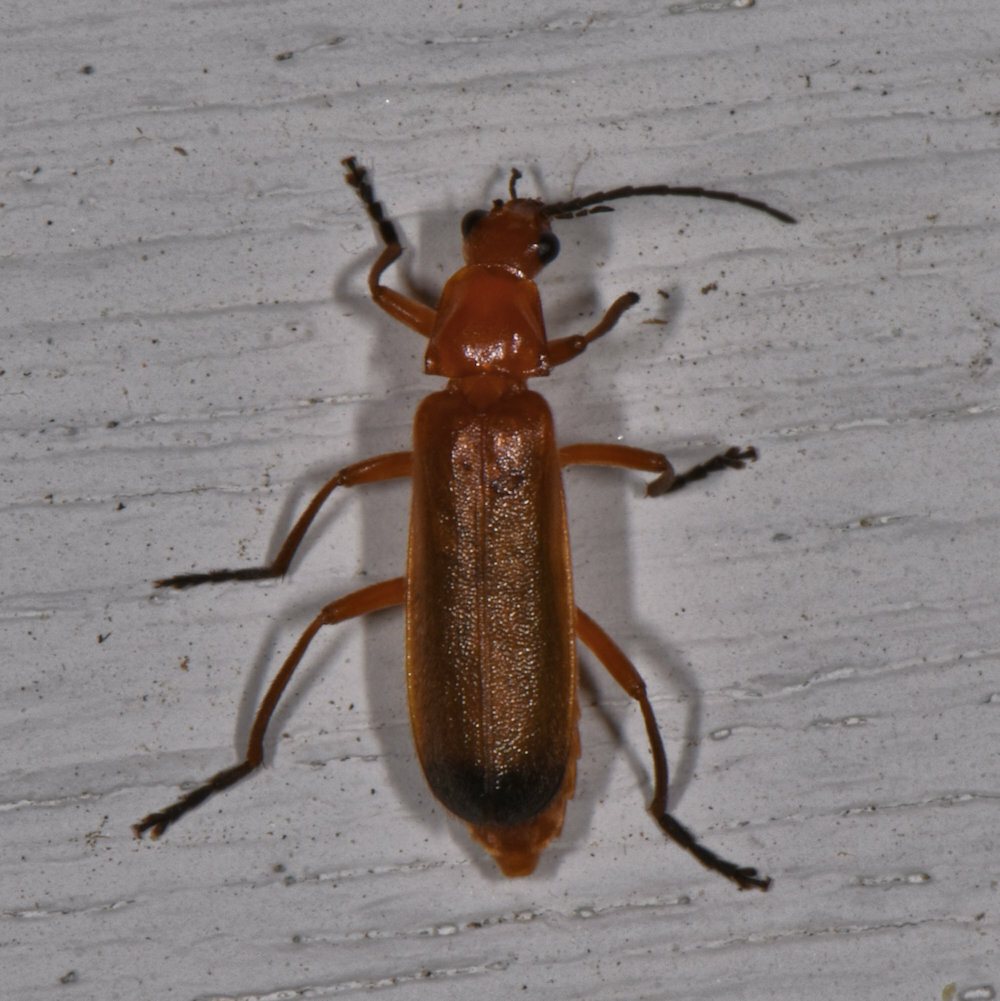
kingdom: Animalia
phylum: Arthropoda
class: Insecta
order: Coleoptera
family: Cantharidae
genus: Rhagonycha
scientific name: Rhagonycha fulva
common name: Common red soldier beetle
